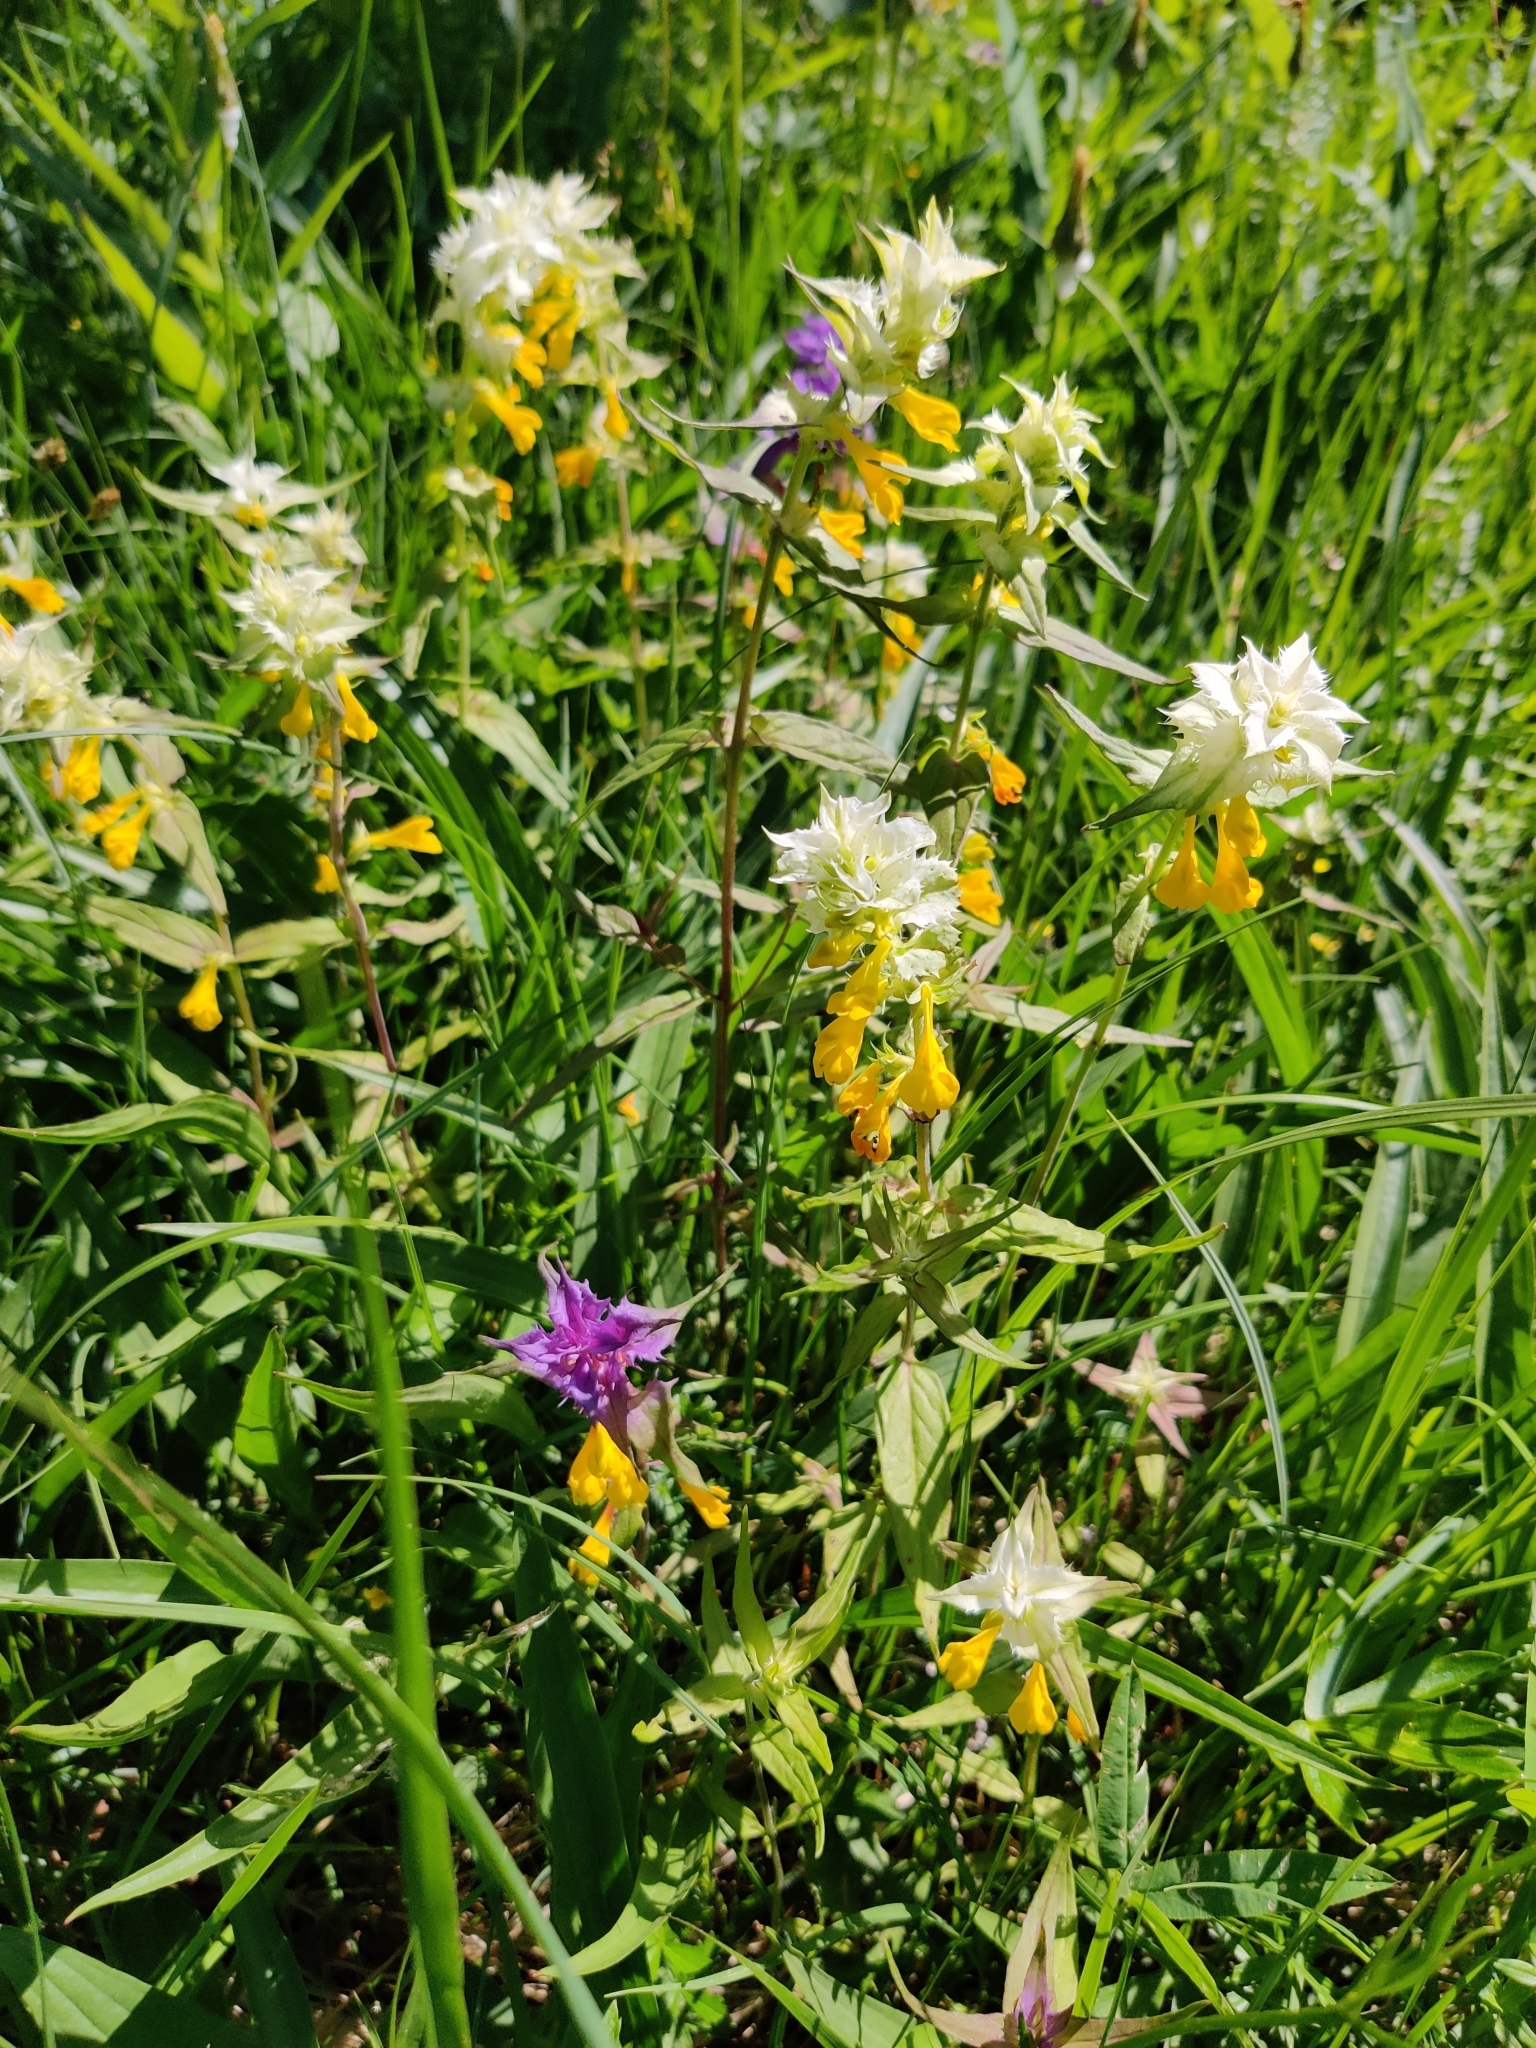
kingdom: Plantae
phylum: Tracheophyta
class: Magnoliopsida
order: Lamiales
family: Orobanchaceae
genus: Melampyrum
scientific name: Melampyrum nemorosum
